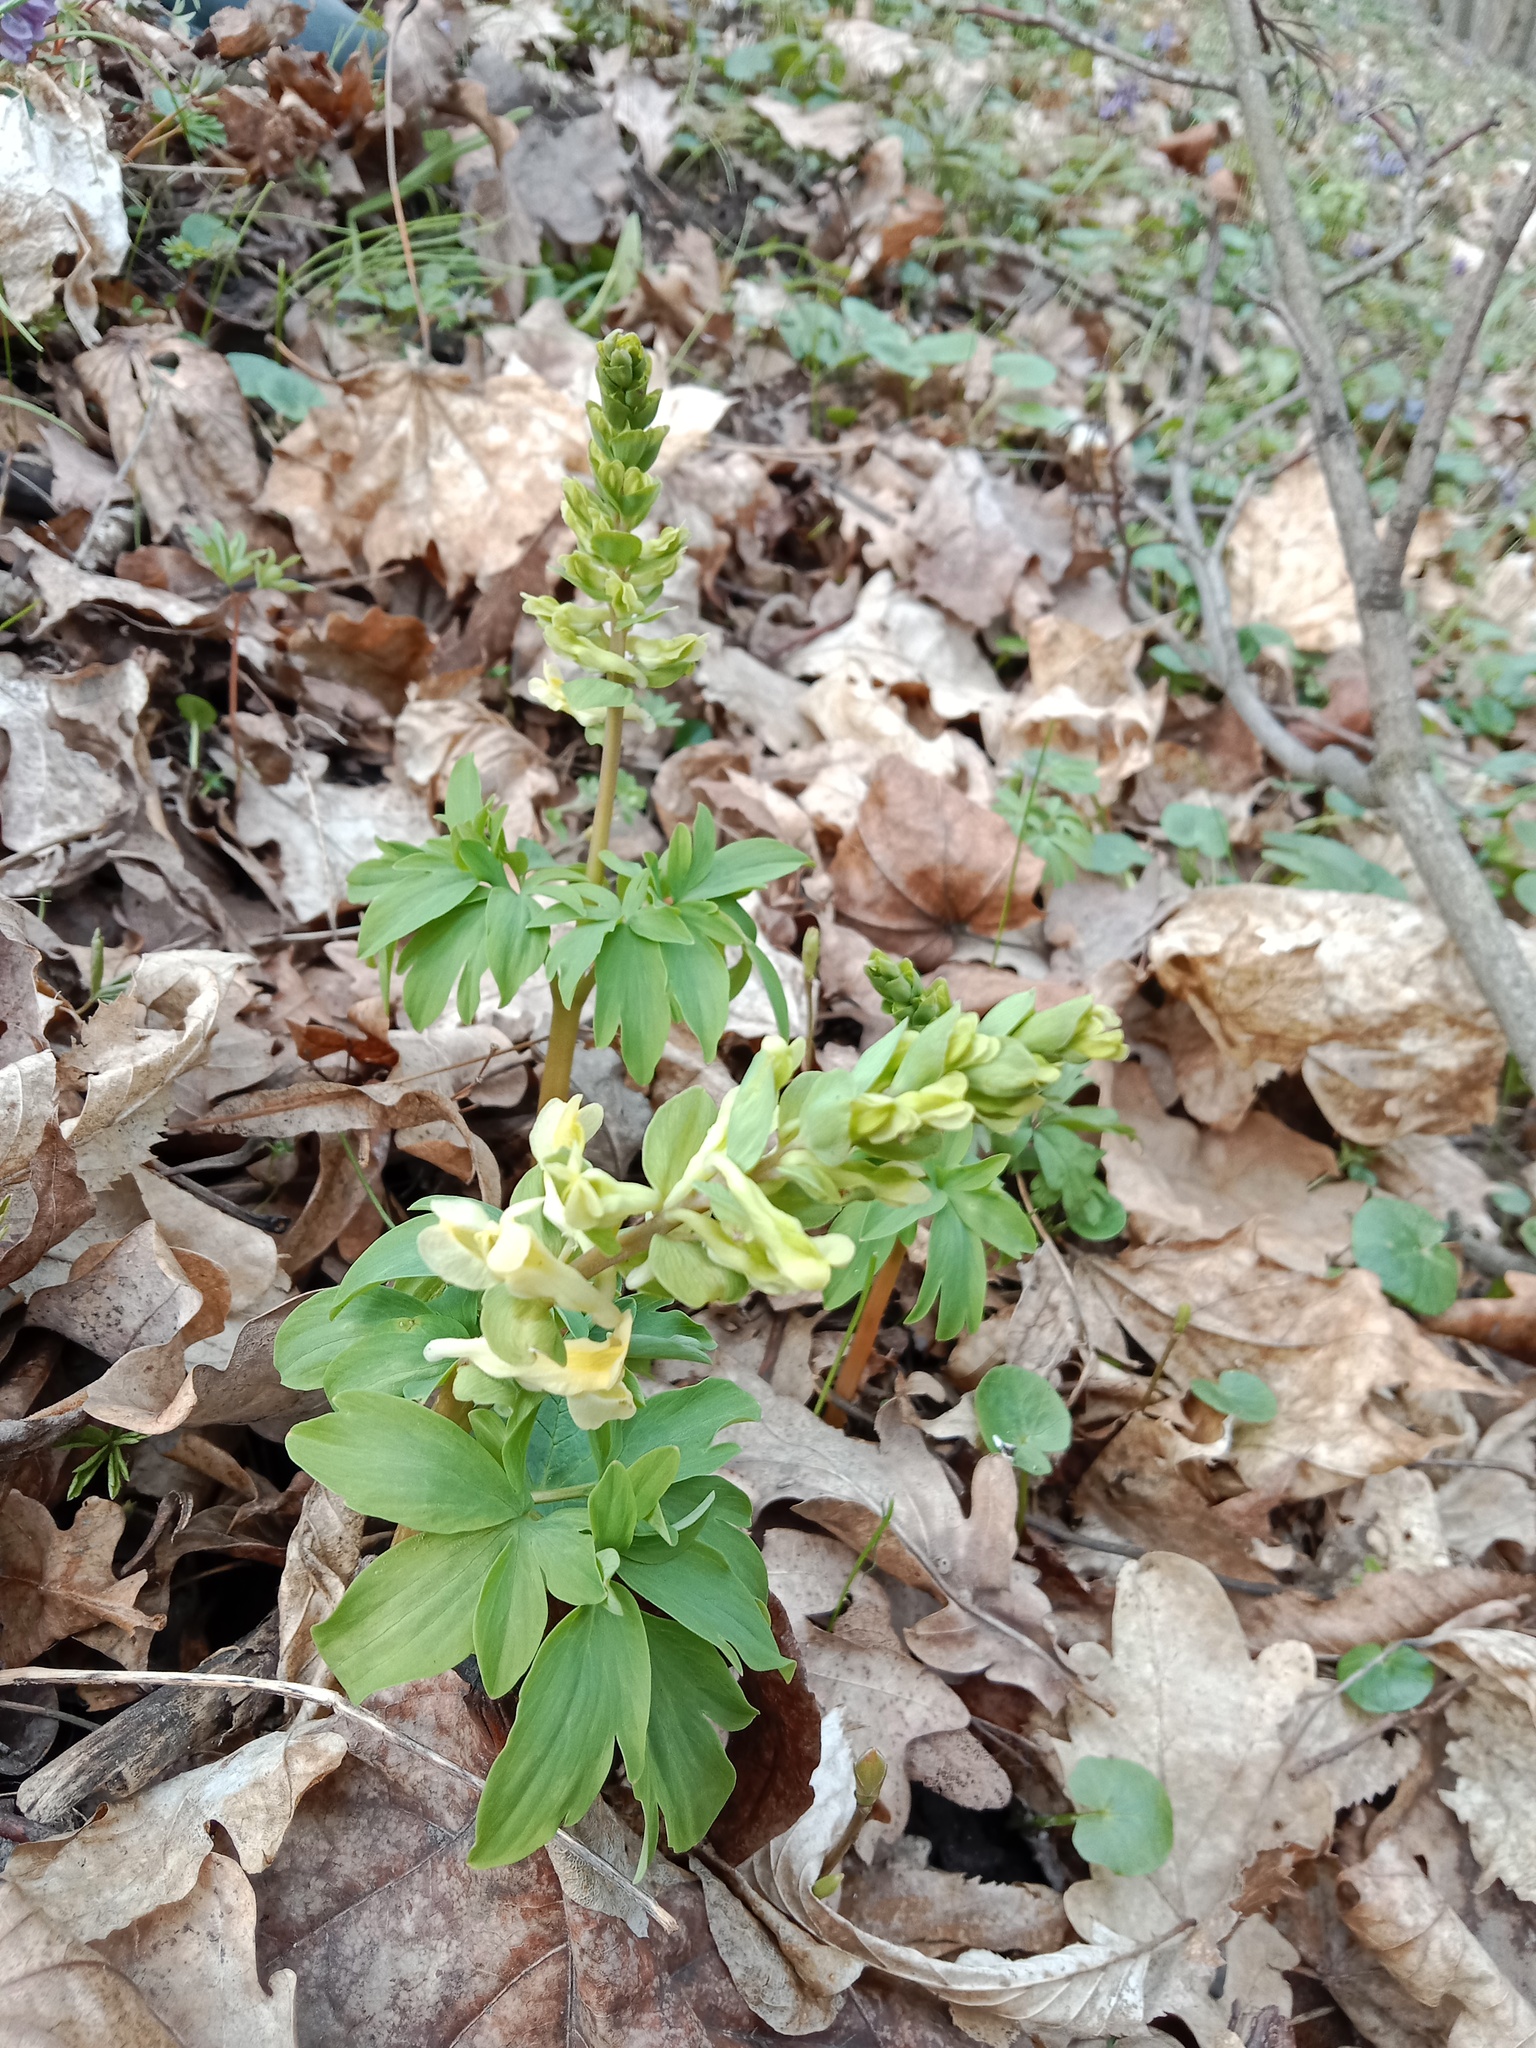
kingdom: Plantae
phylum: Tracheophyta
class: Magnoliopsida
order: Ranunculales
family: Papaveraceae
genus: Corydalis
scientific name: Corydalis cava
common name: Hollowroot
